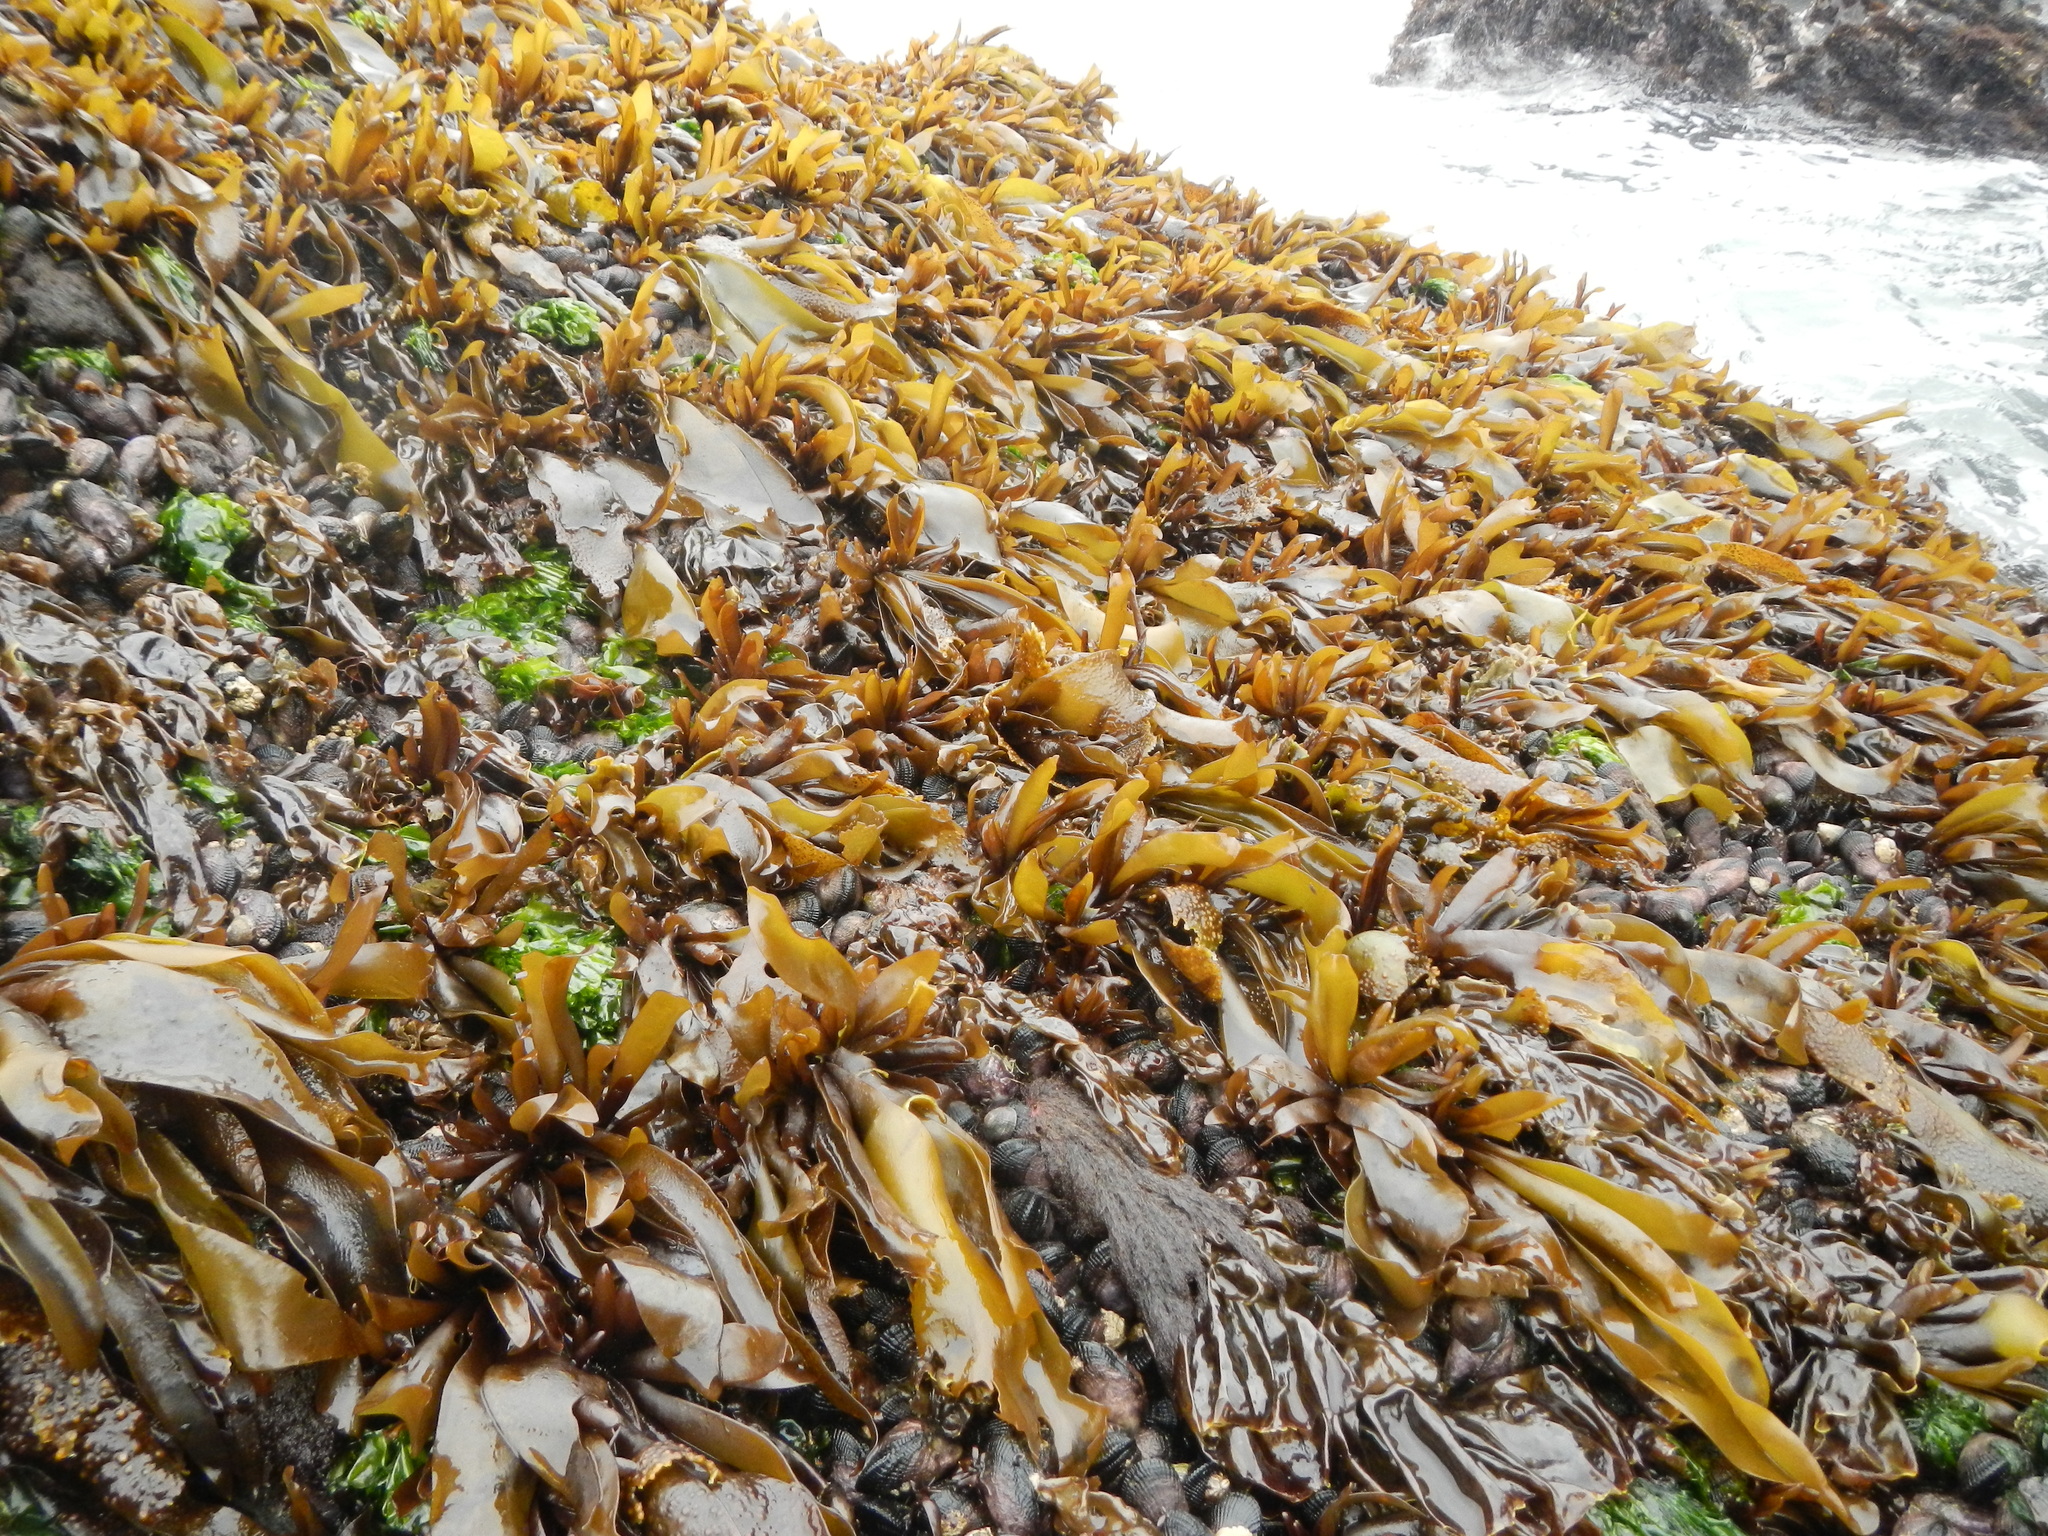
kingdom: Plantae
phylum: Rhodophyta
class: Florideophyceae
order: Gigartinales
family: Gigartinaceae
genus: Mazzaella
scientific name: Mazzaella laminarioides
